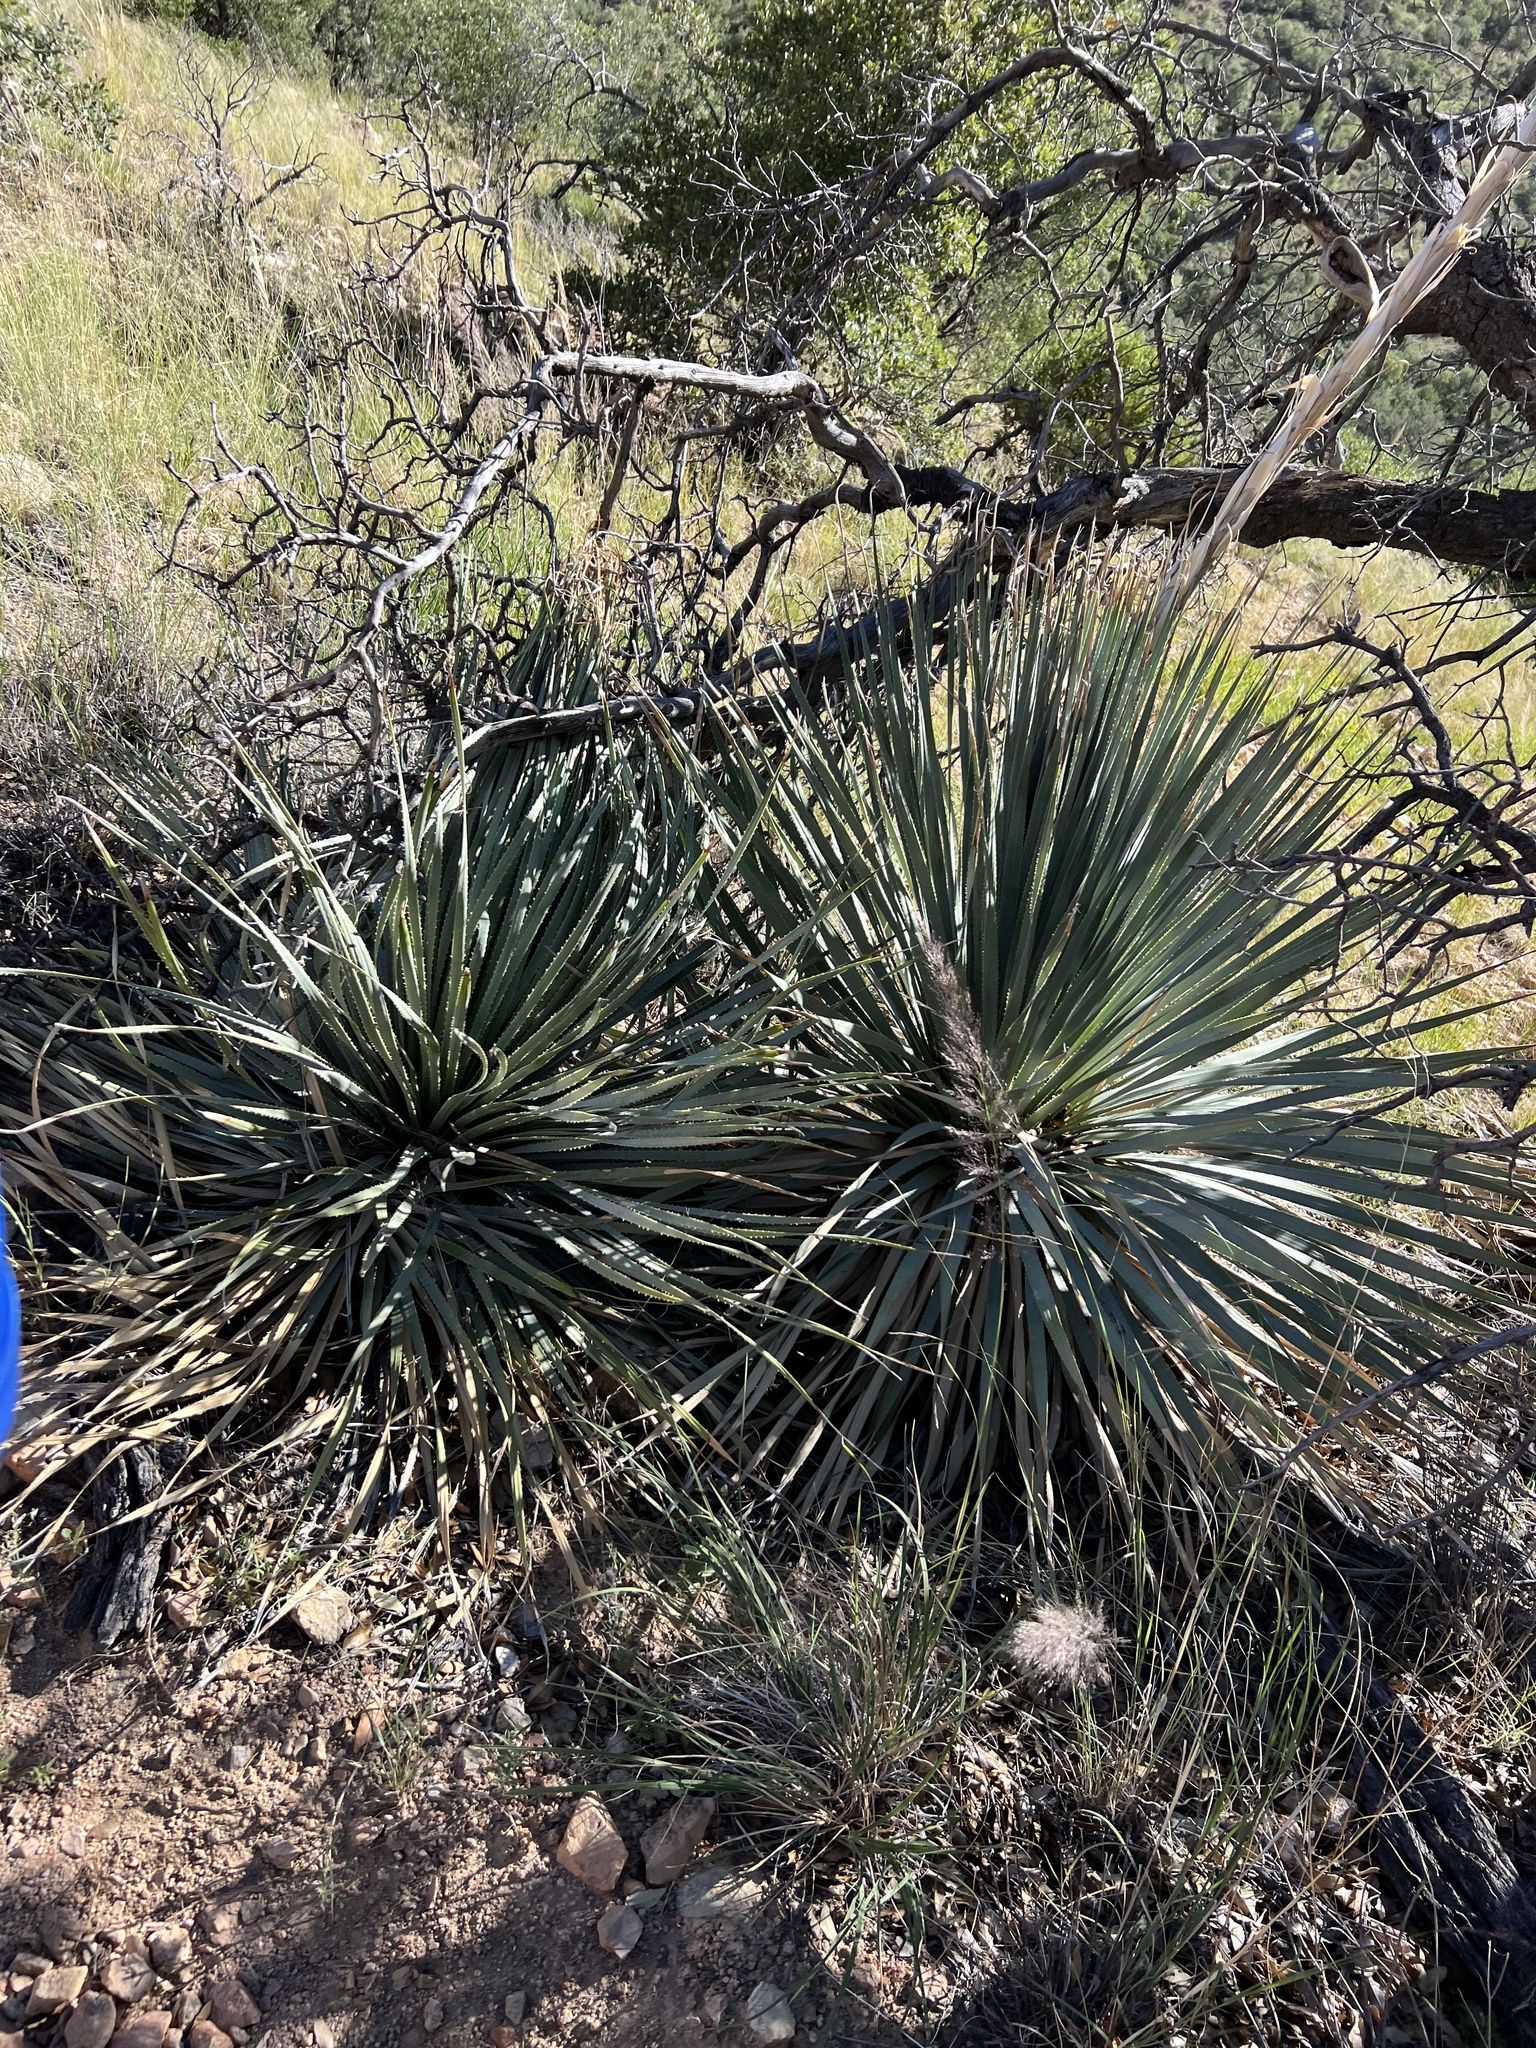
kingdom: Plantae
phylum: Tracheophyta
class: Liliopsida
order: Asparagales
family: Asparagaceae
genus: Dasylirion
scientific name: Dasylirion wheeleri
